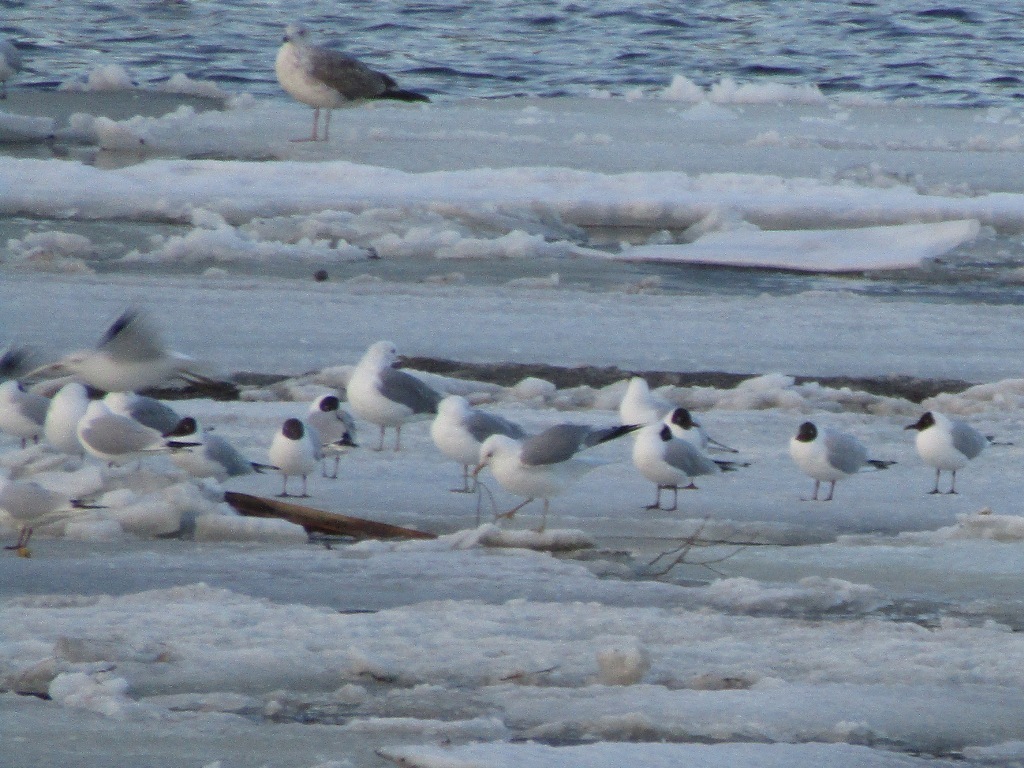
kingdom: Animalia
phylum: Chordata
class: Aves
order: Charadriiformes
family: Laridae
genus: Larus
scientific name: Larus canus
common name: Mew gull
